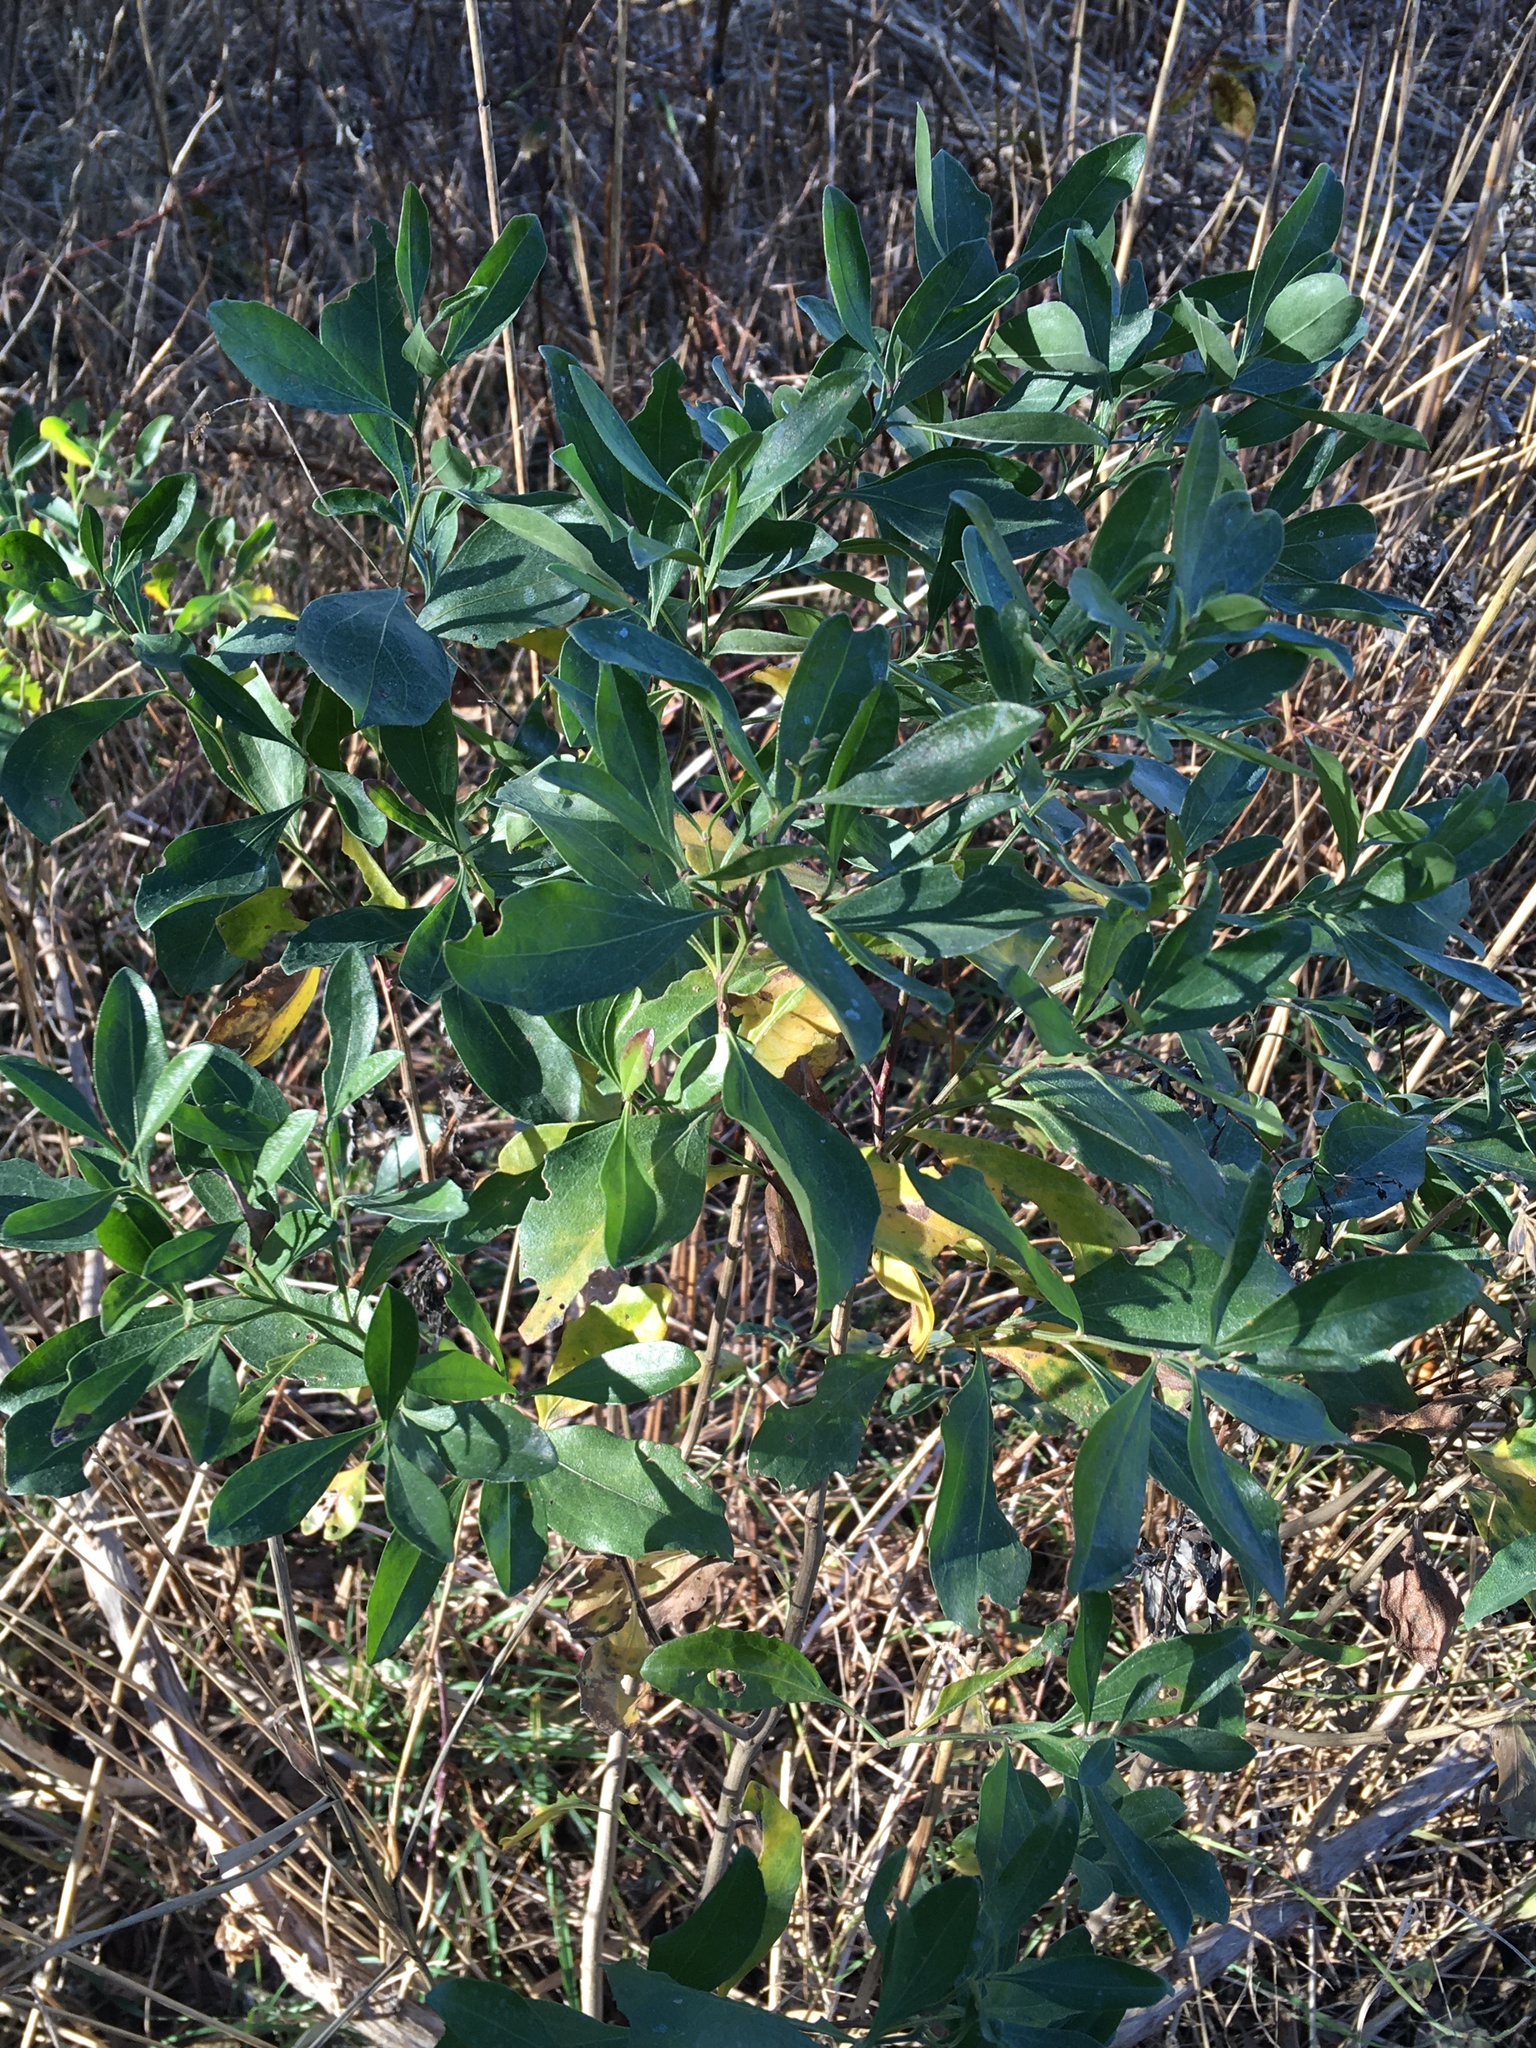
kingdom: Plantae
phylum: Tracheophyta
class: Magnoliopsida
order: Asterales
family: Asteraceae
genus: Baccharis
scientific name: Baccharis halimifolia
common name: Eastern baccharis
